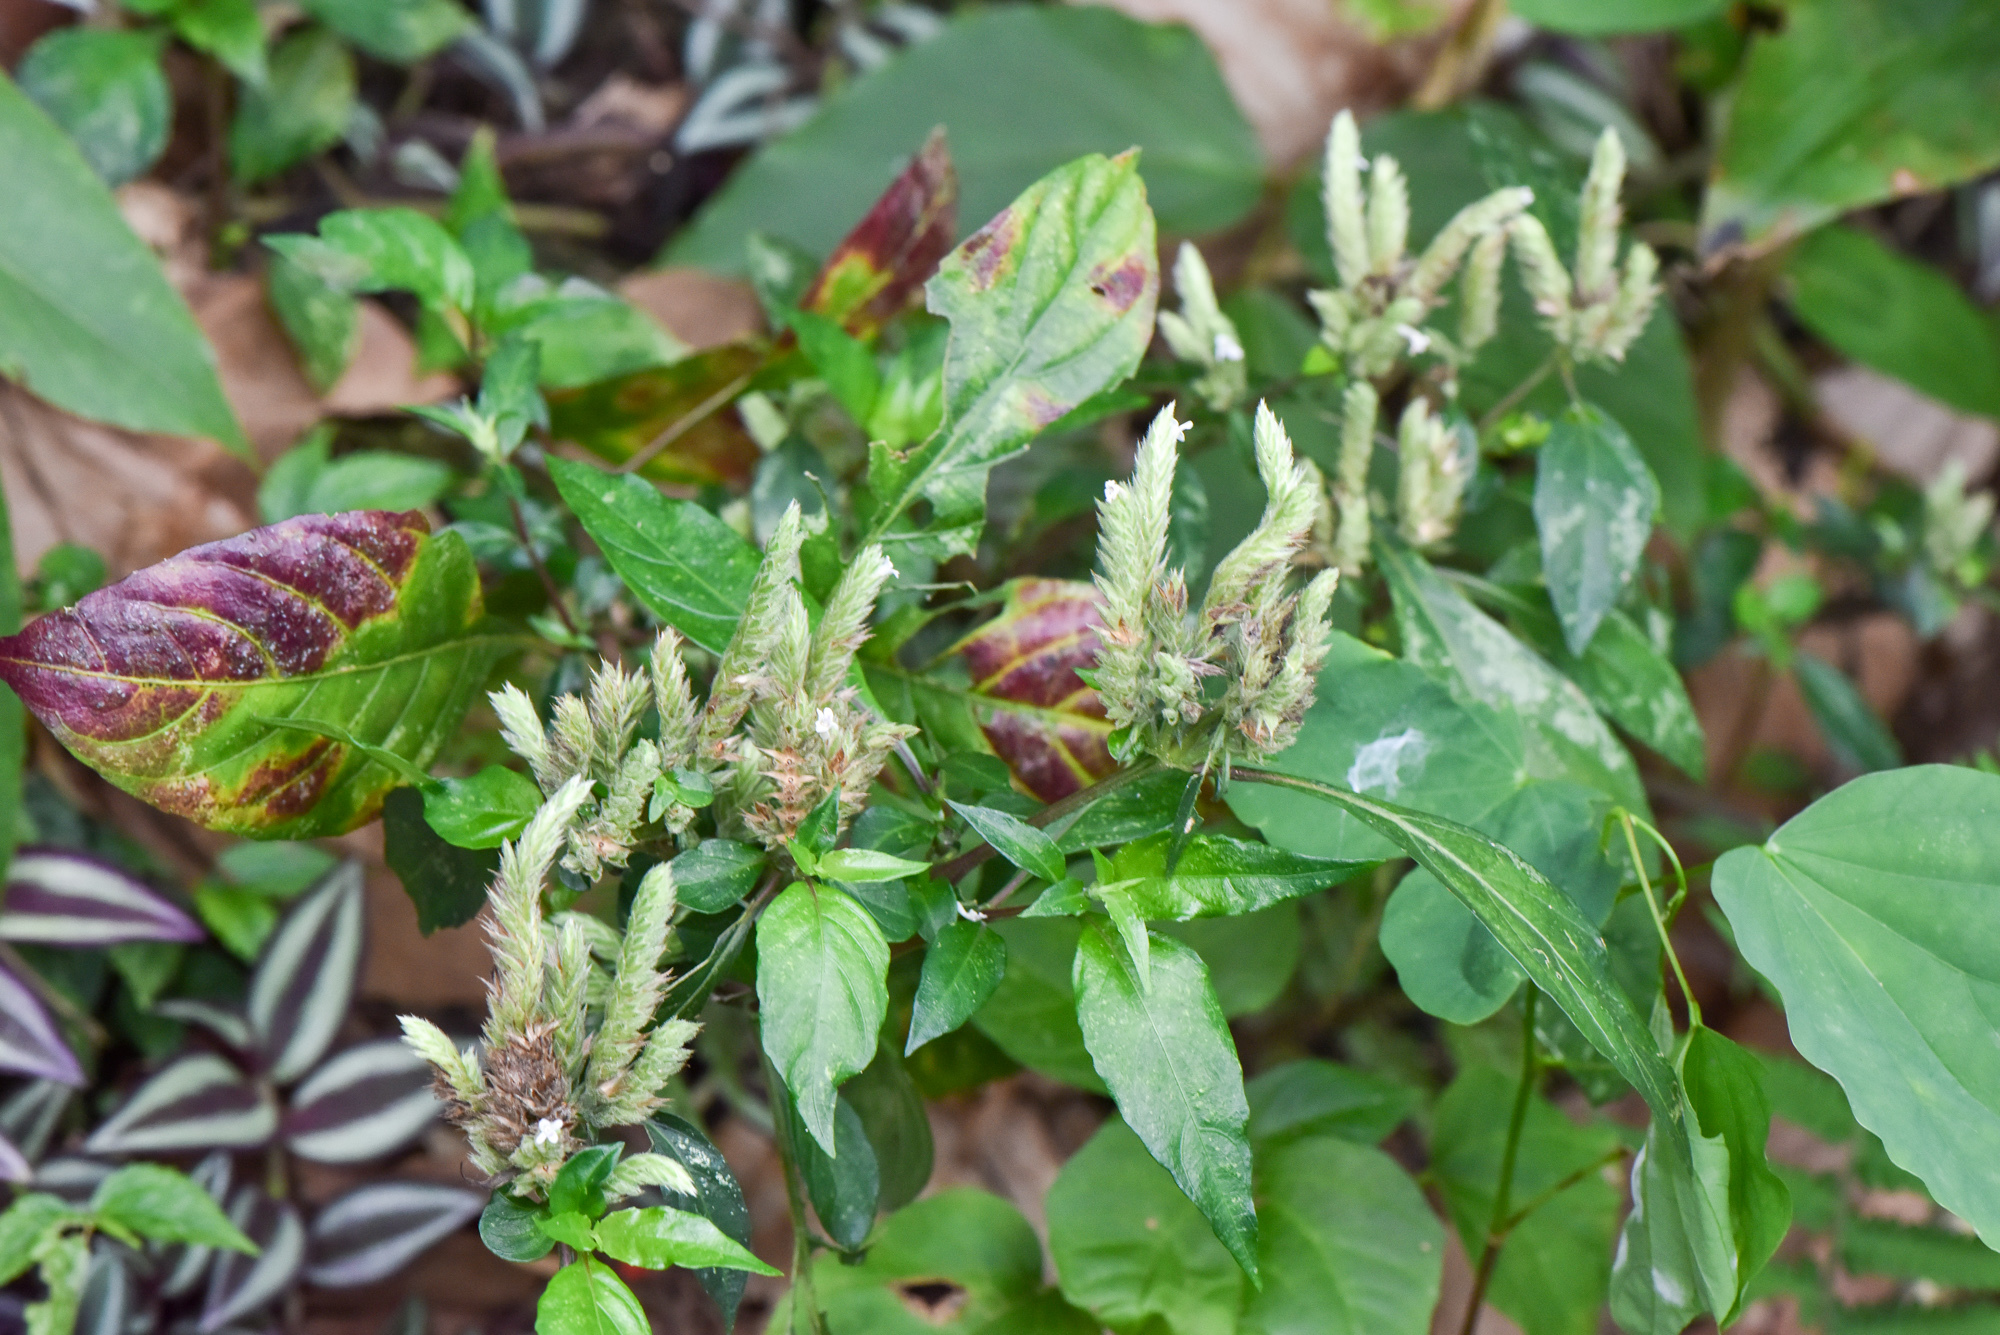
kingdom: Plantae
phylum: Tracheophyta
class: Magnoliopsida
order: Lamiales
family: Acanthaceae
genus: Lepidagathis
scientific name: Lepidagathis formosensis
